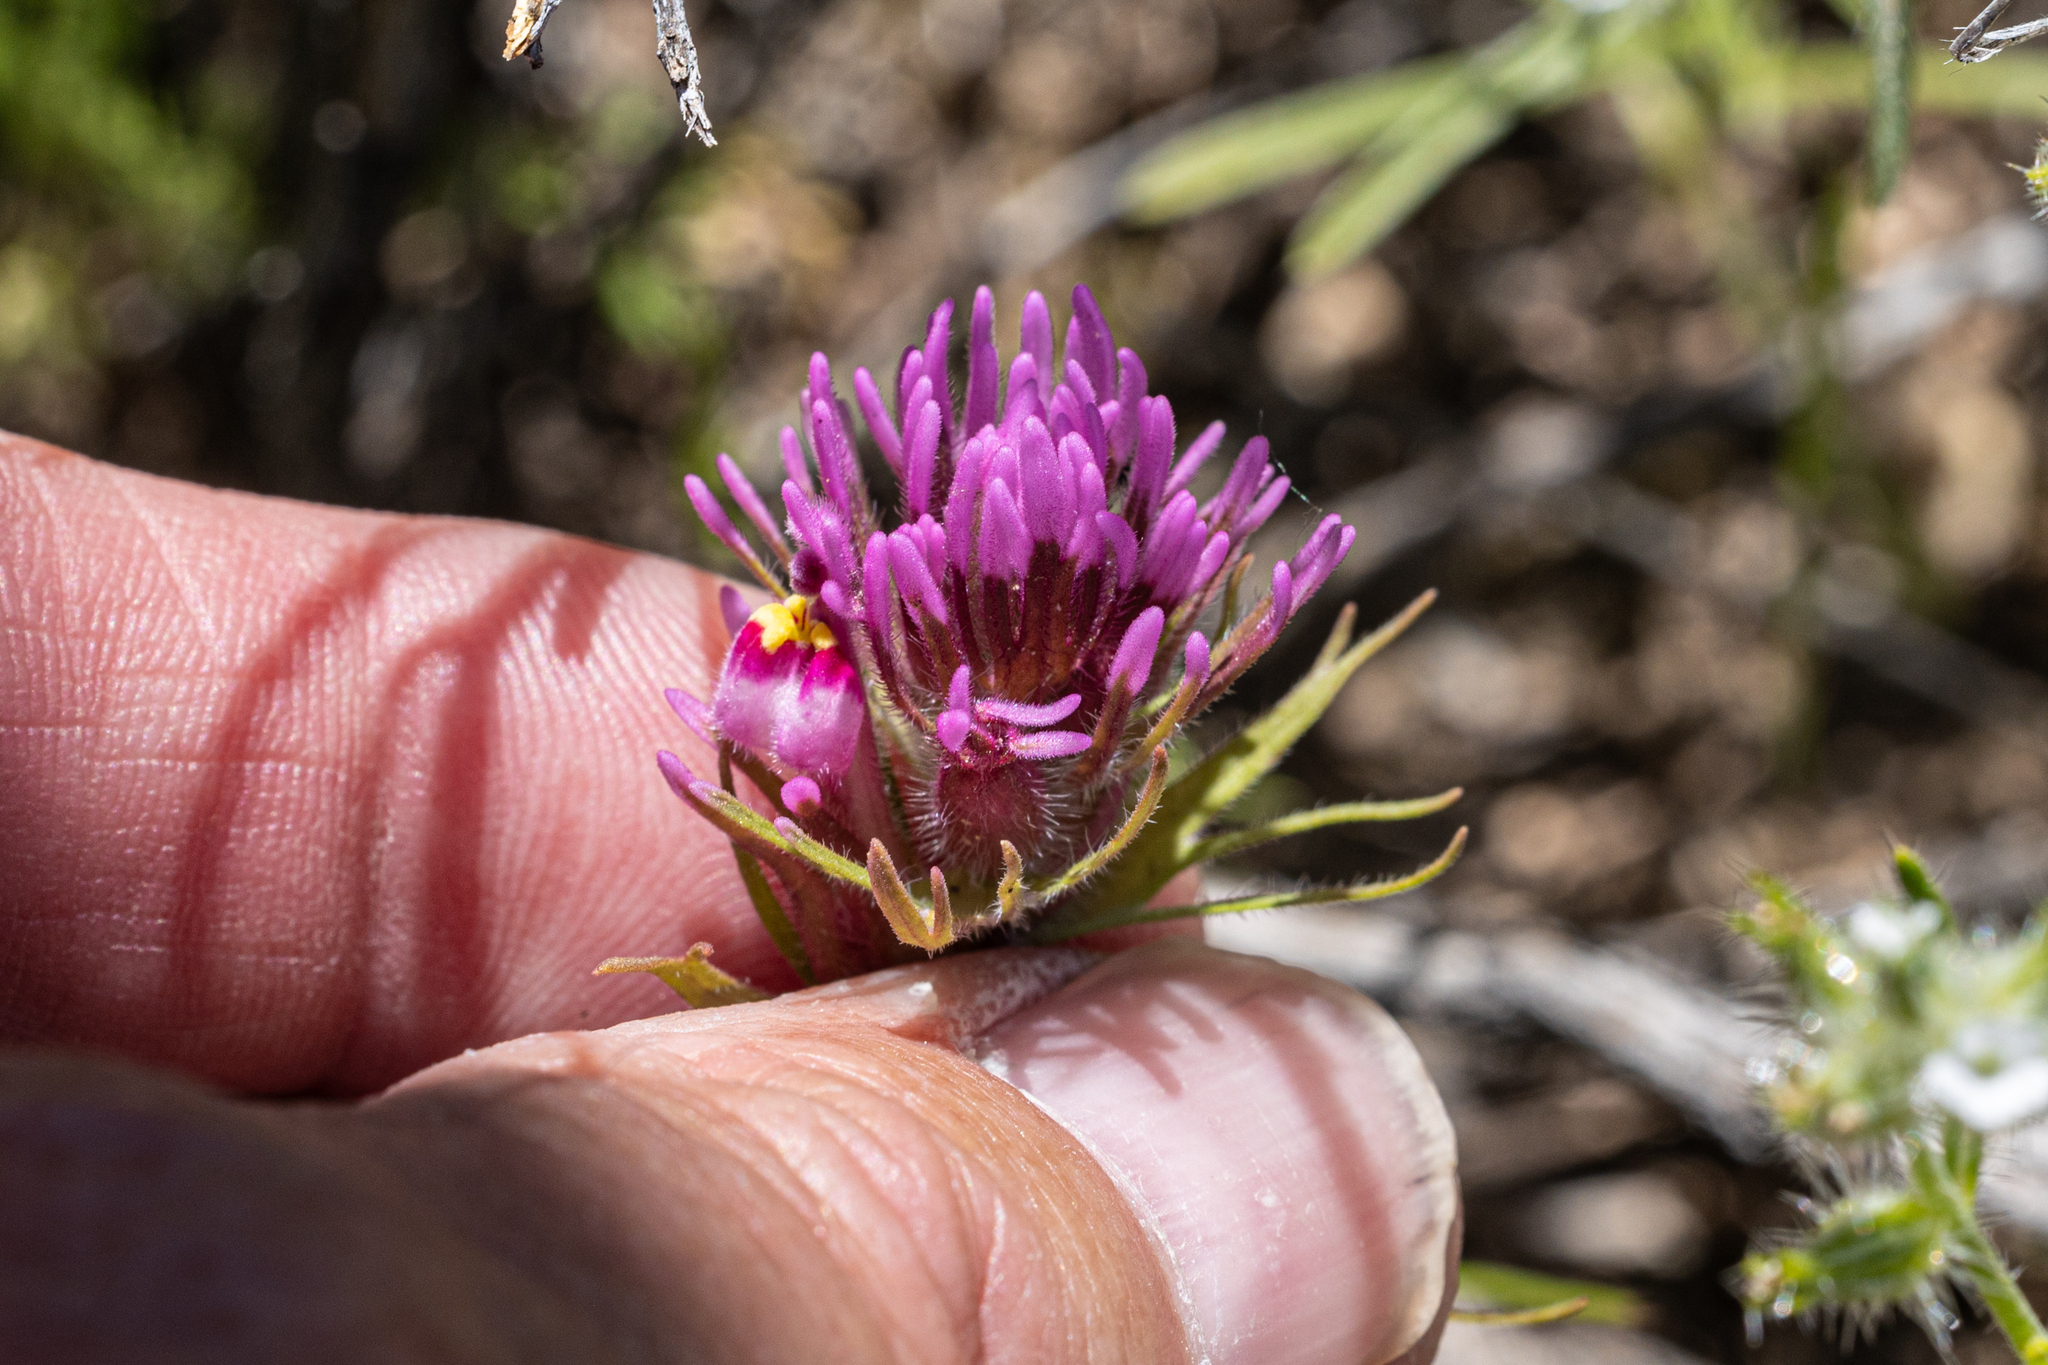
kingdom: Plantae
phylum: Tracheophyta
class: Magnoliopsida
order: Lamiales
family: Orobanchaceae
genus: Castilleja
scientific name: Castilleja exserta
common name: Purple owl-clover
